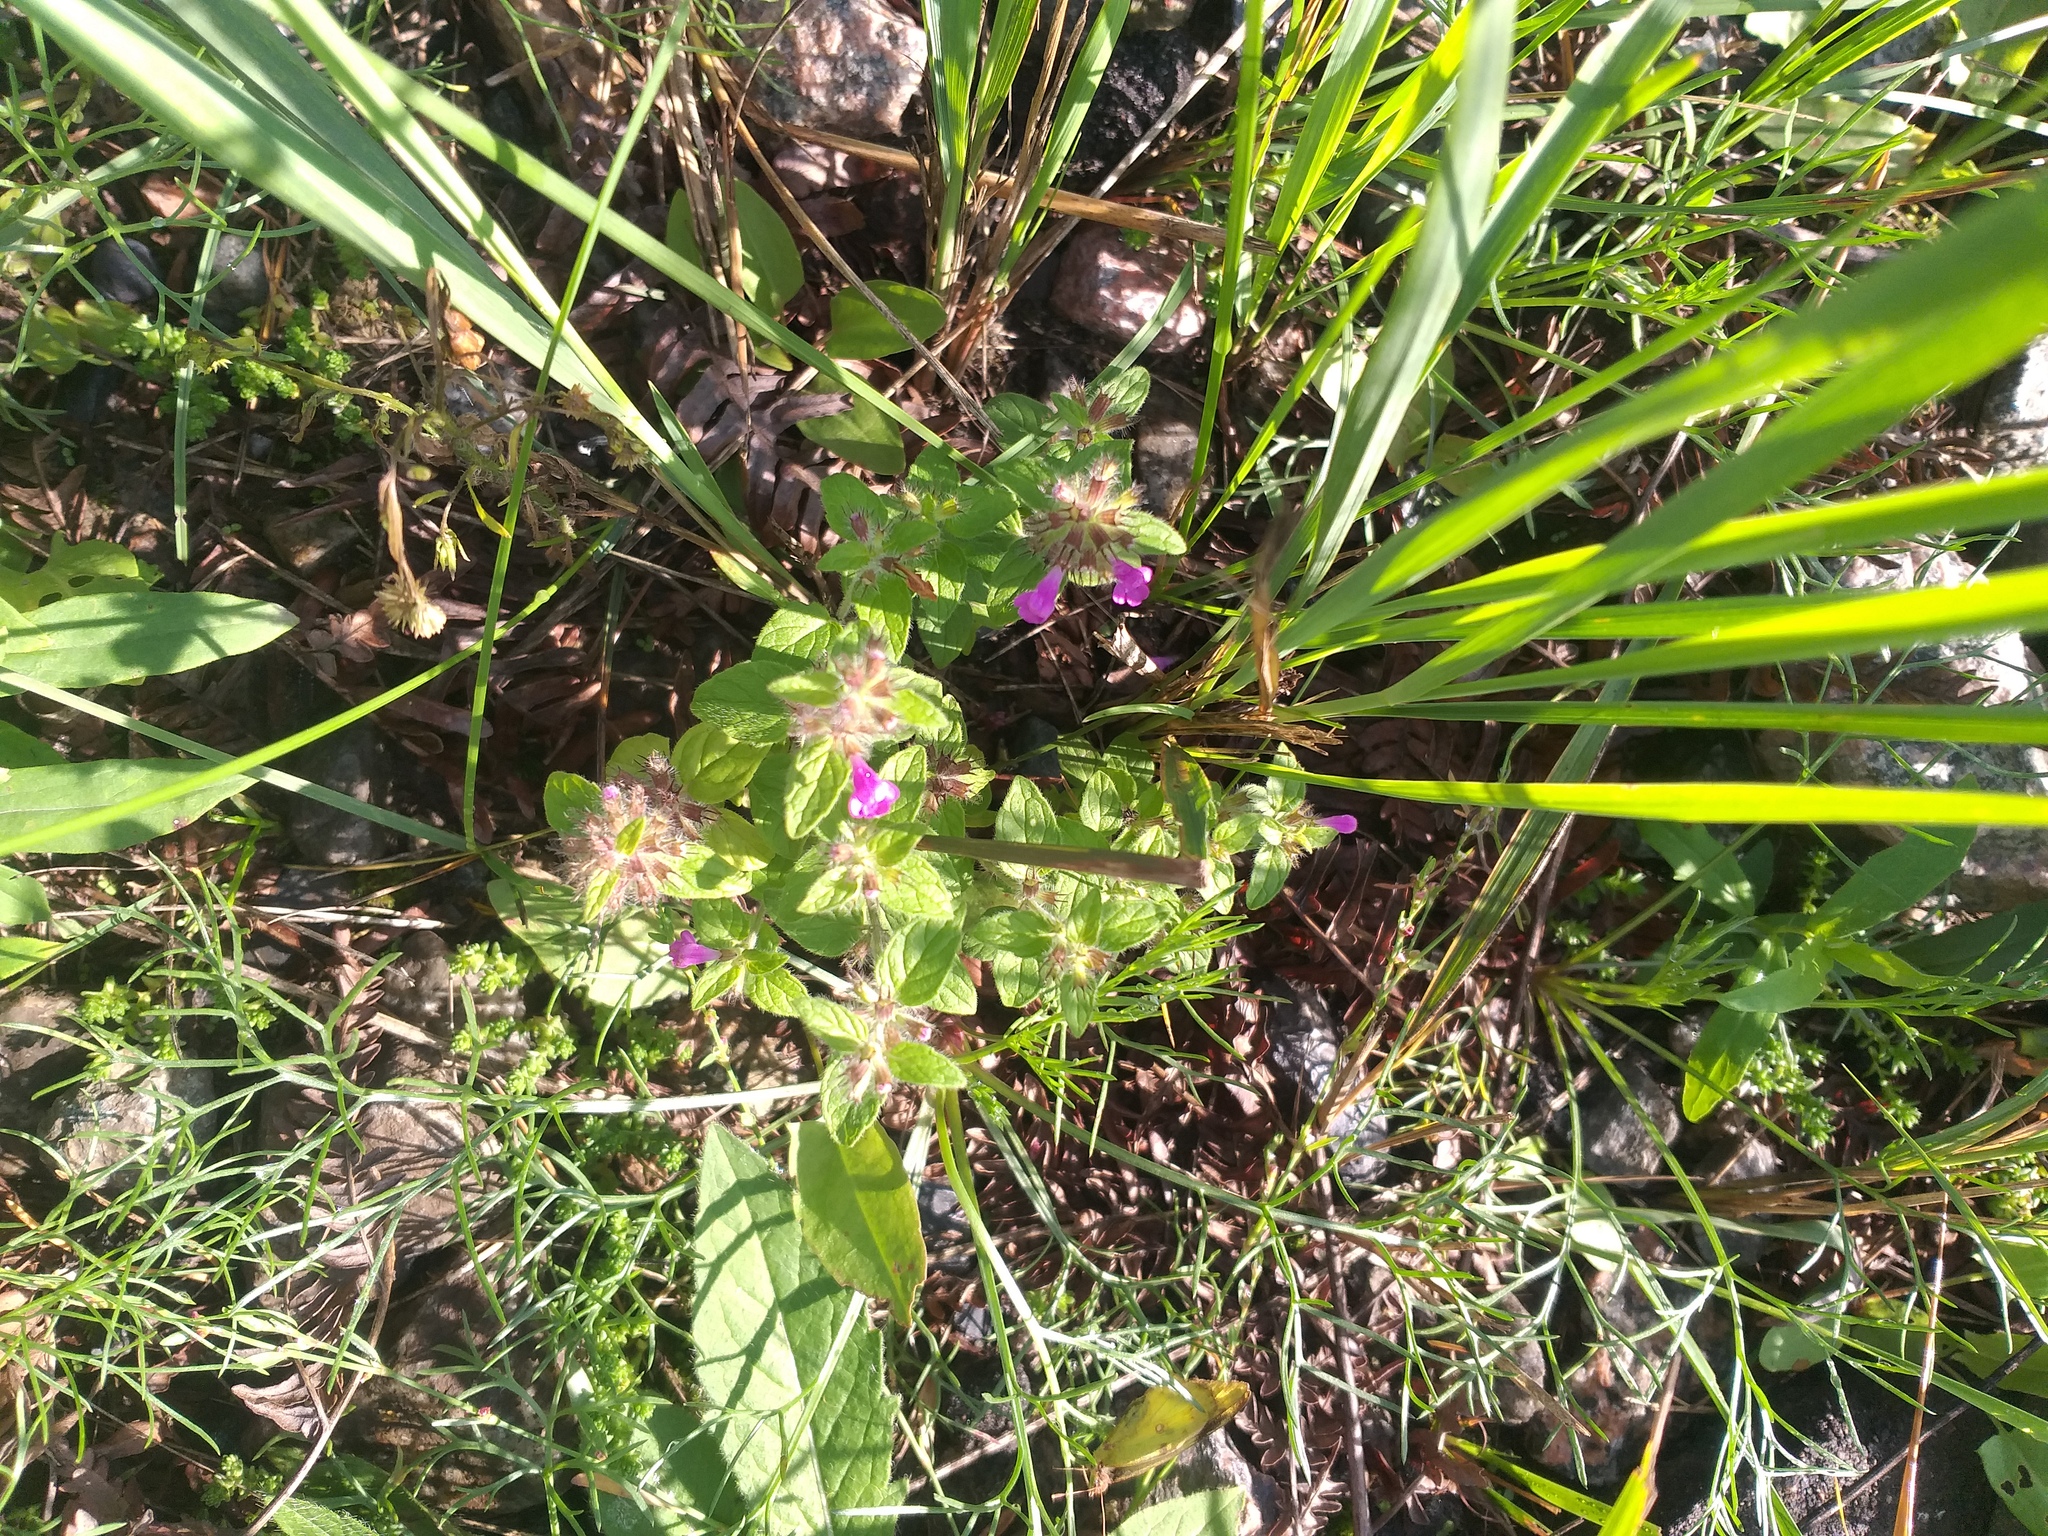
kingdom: Plantae
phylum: Tracheophyta
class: Magnoliopsida
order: Lamiales
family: Lamiaceae
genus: Clinopodium
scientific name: Clinopodium vulgare
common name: Wild basil
